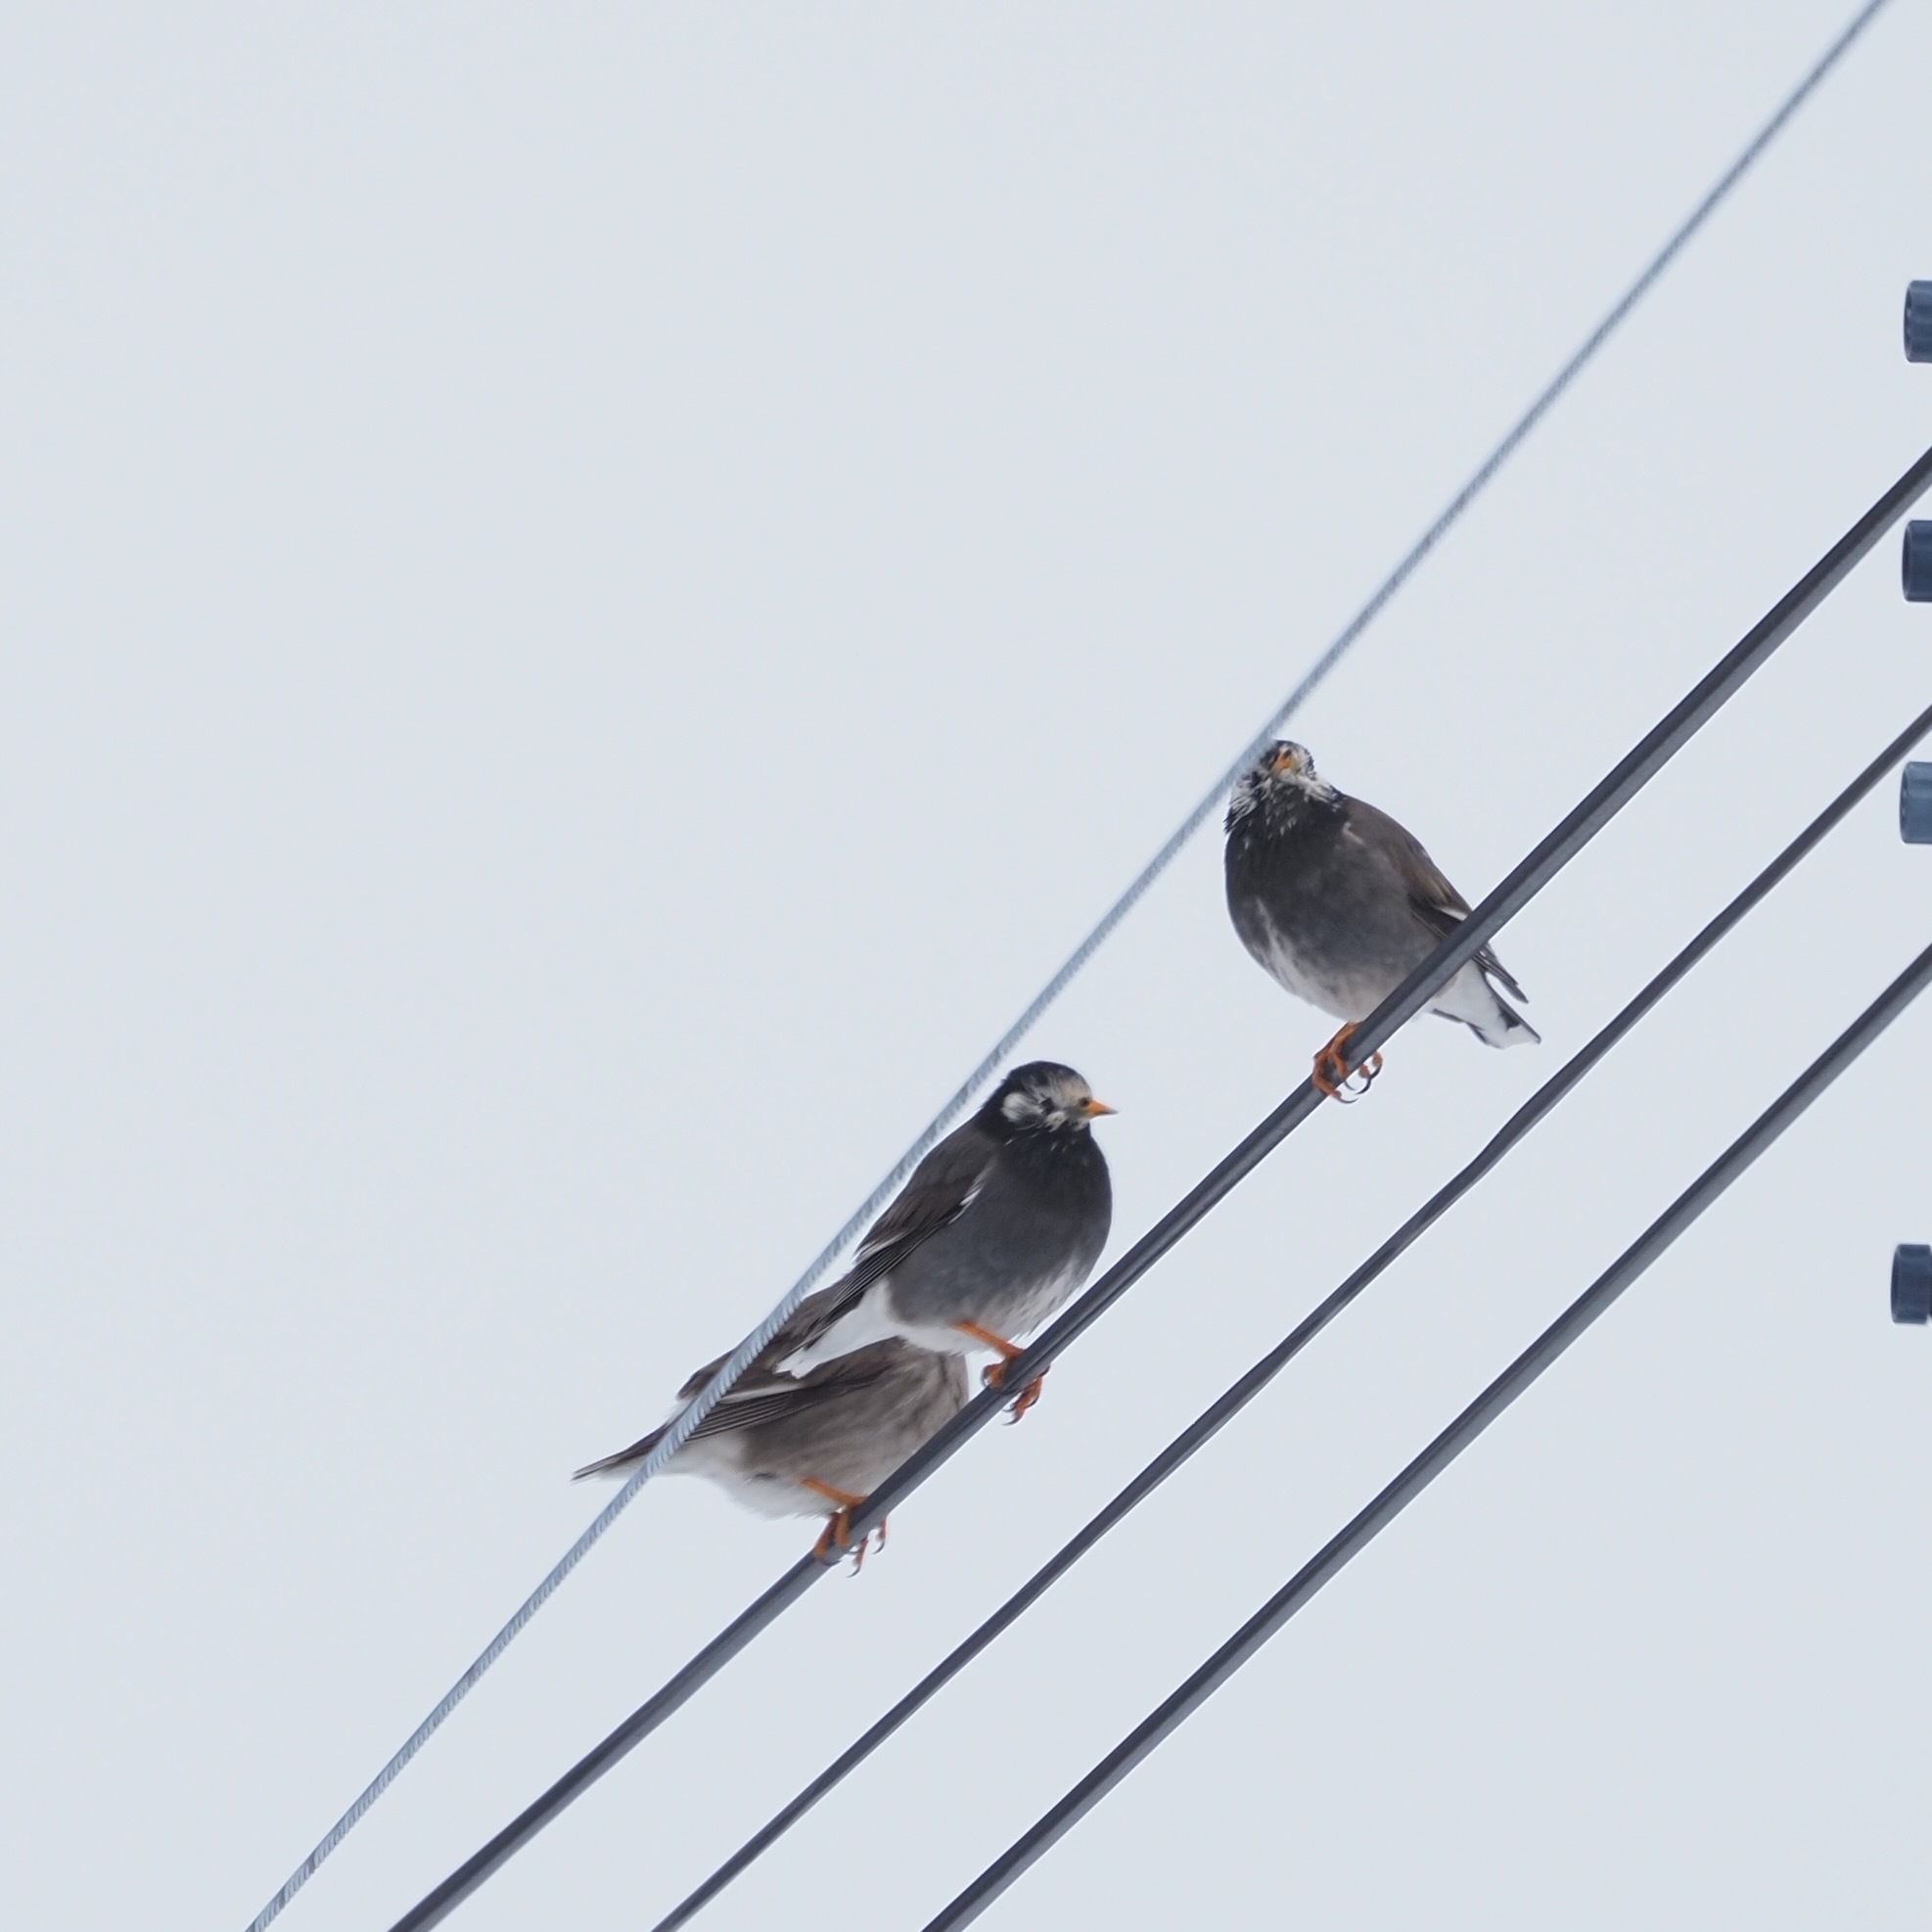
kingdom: Animalia
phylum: Chordata
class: Aves
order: Passeriformes
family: Sturnidae
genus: Spodiopsar
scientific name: Spodiopsar cineraceus
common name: White-cheeked starling
